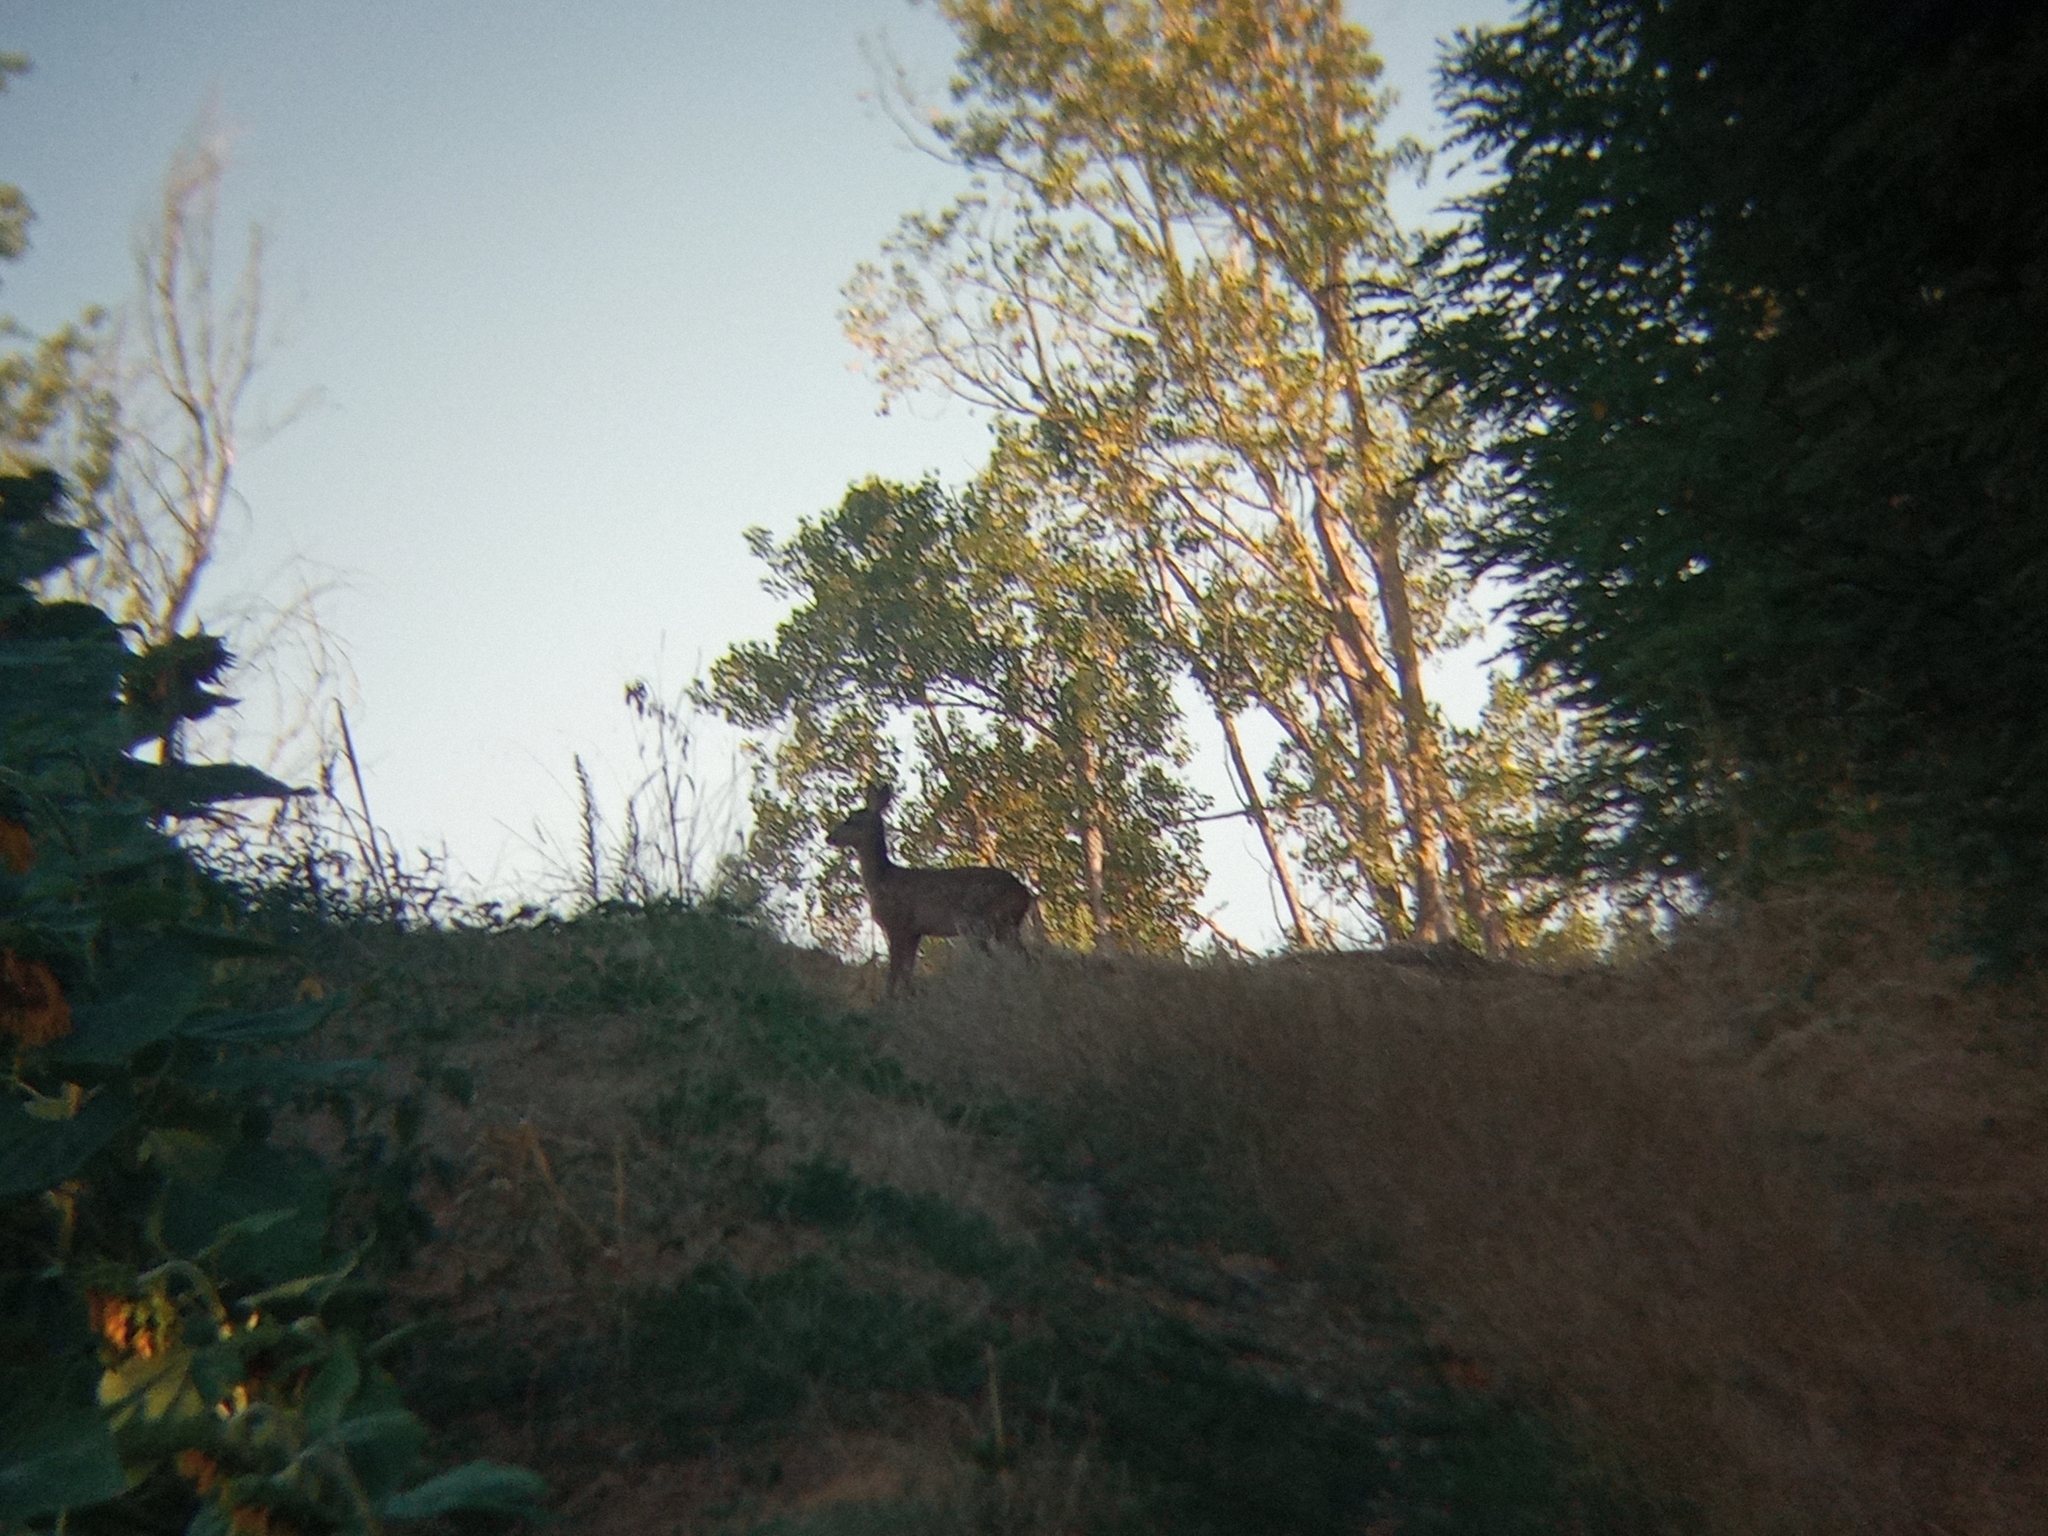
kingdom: Animalia
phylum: Chordata
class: Mammalia
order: Artiodactyla
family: Cervidae
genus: Capreolus
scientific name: Capreolus capreolus
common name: Western roe deer
